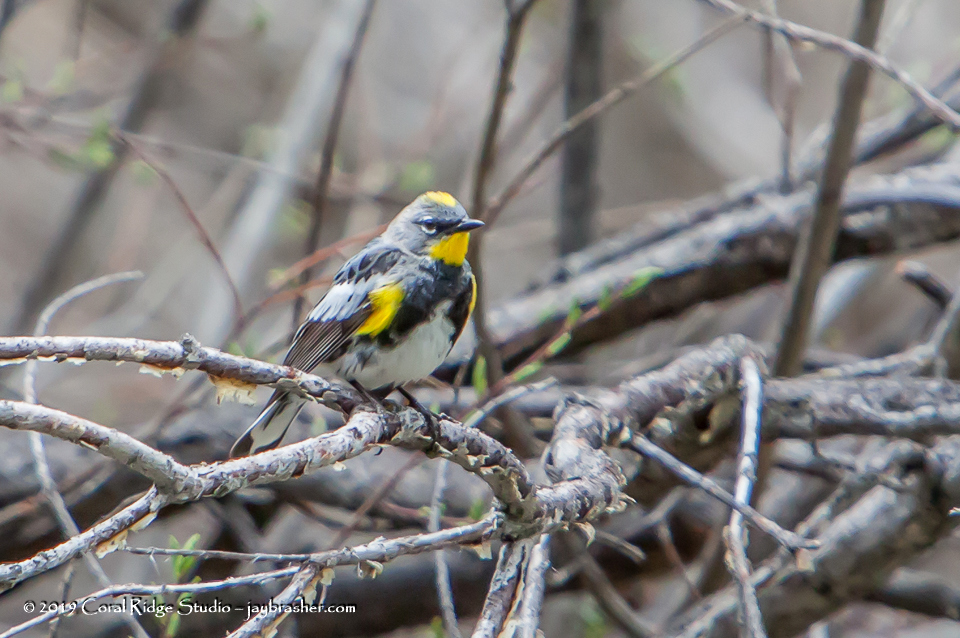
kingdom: Animalia
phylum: Chordata
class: Aves
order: Passeriformes
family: Parulidae
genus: Setophaga
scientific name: Setophaga auduboni
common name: Audubon's warbler
